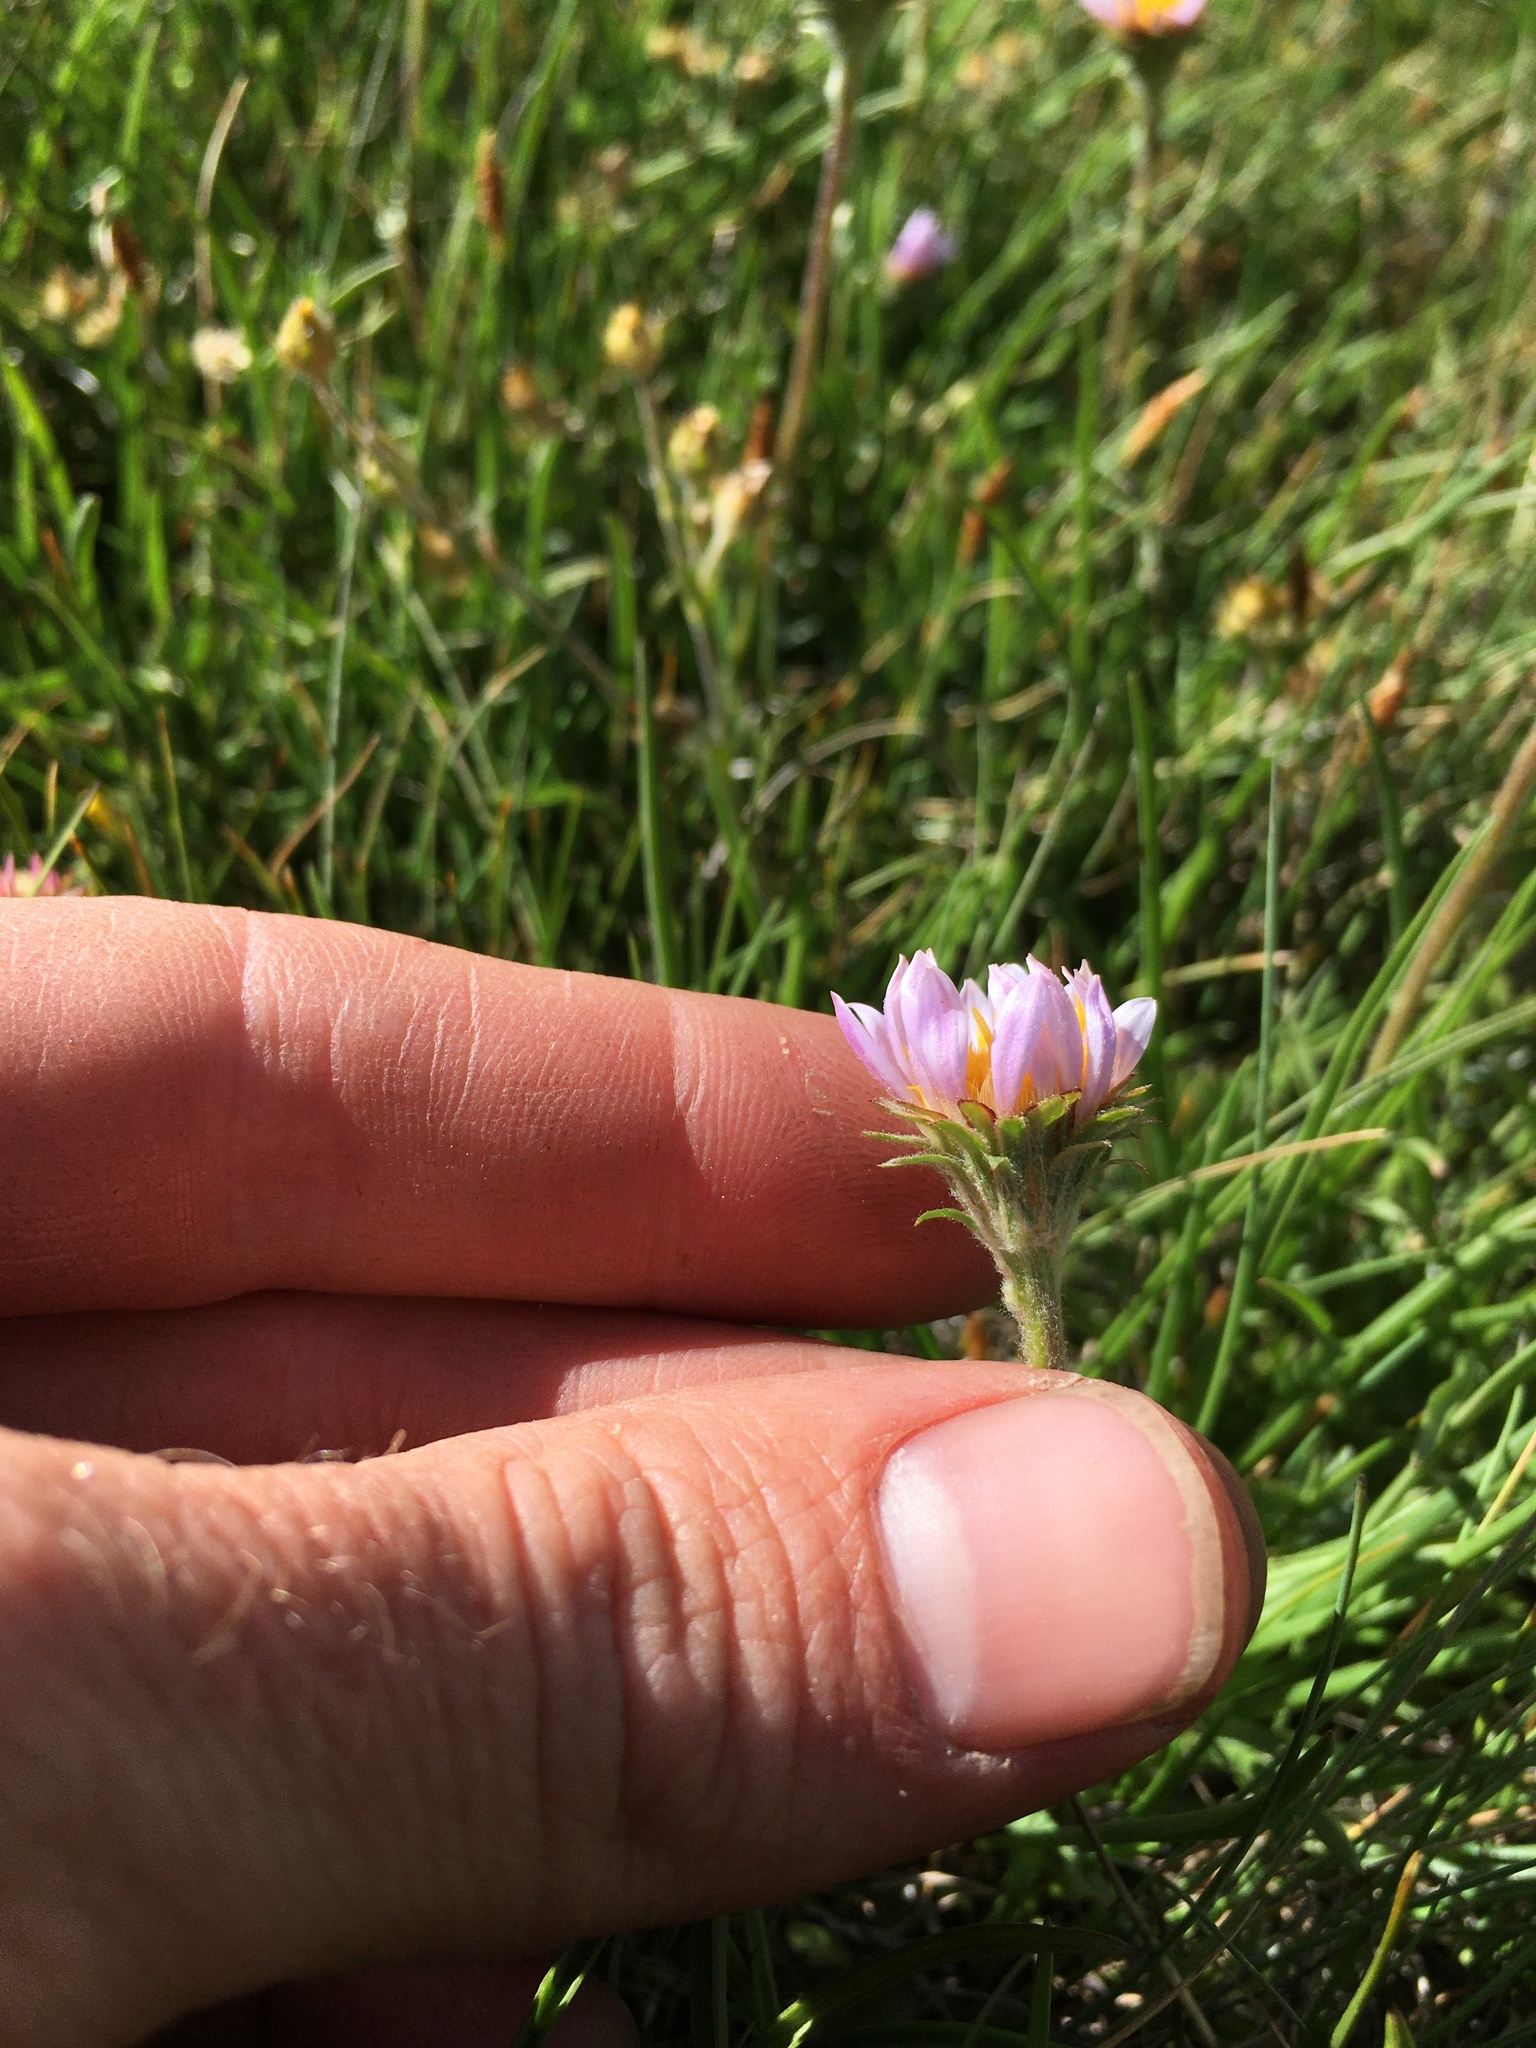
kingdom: Plantae
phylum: Tracheophyta
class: Magnoliopsida
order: Asterales
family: Asteraceae
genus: Oreostemma
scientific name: Oreostemma alpigenum
